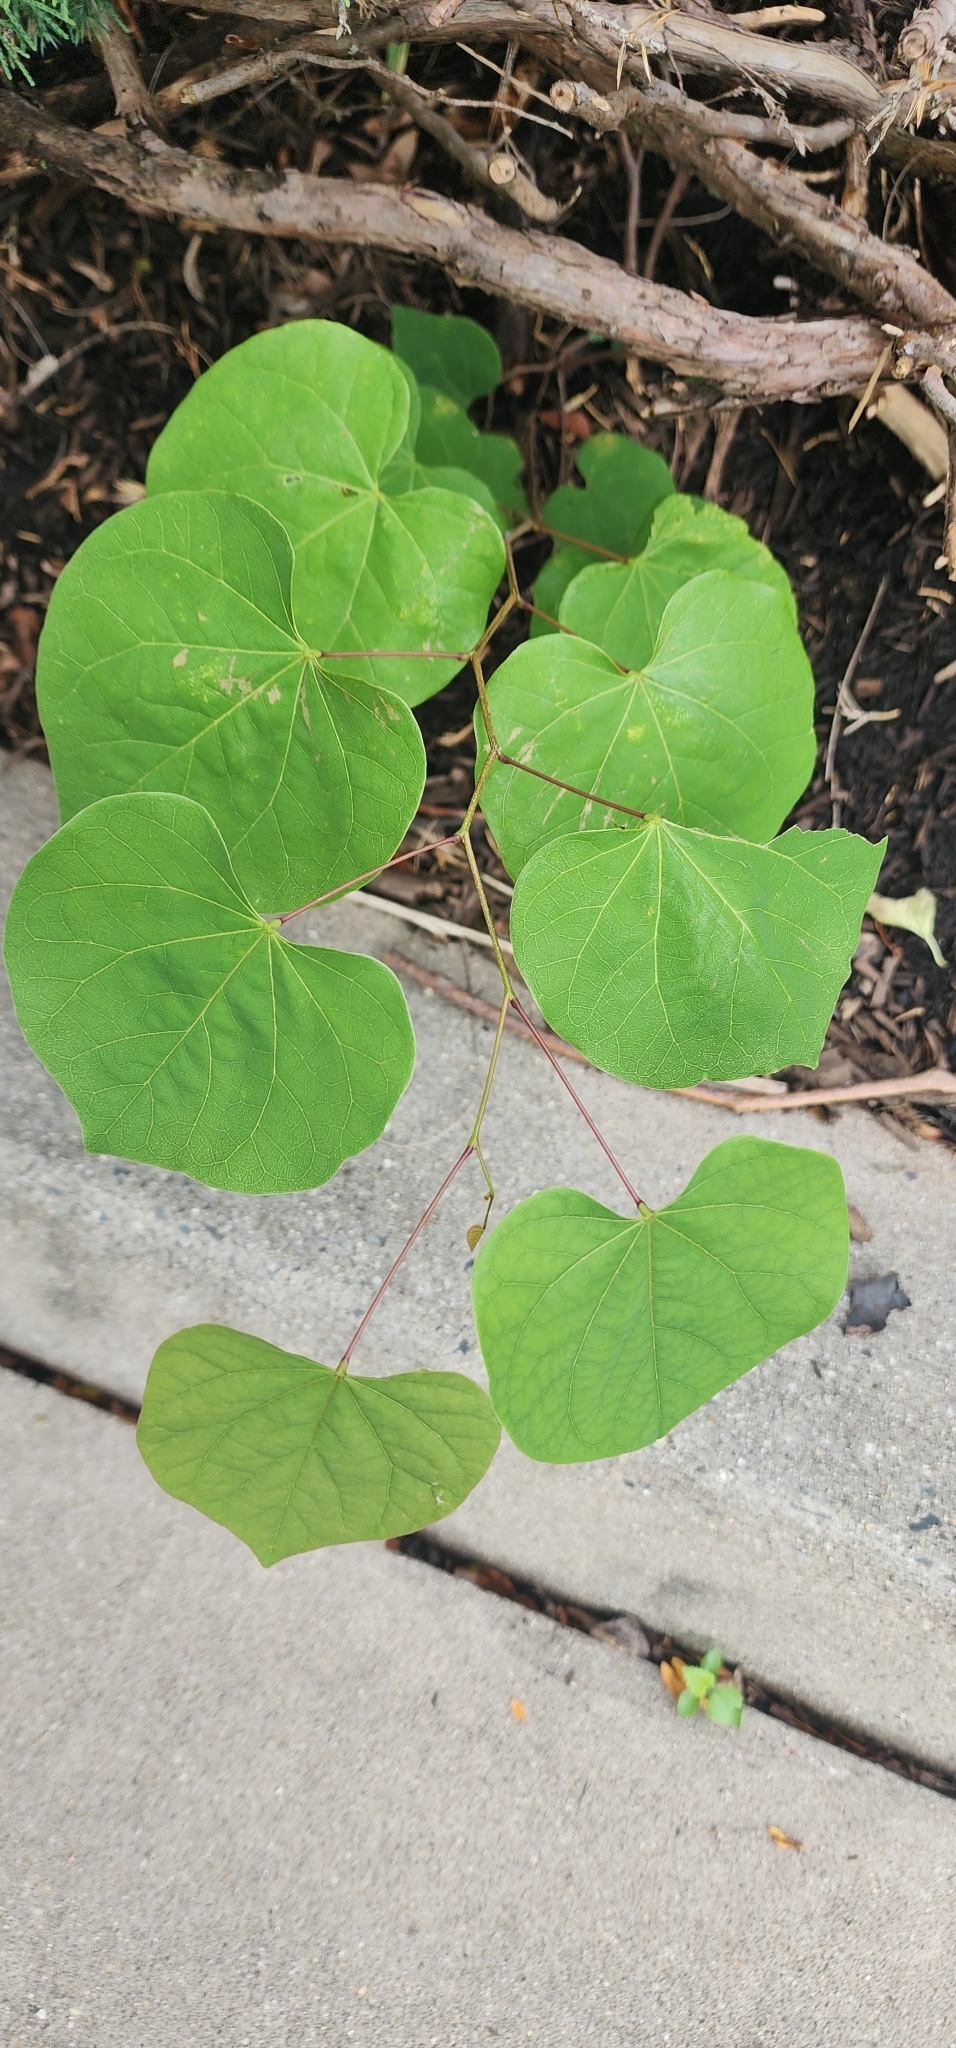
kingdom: Plantae
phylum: Tracheophyta
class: Magnoliopsida
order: Fabales
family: Fabaceae
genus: Cercis
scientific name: Cercis canadensis
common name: Eastern redbud
